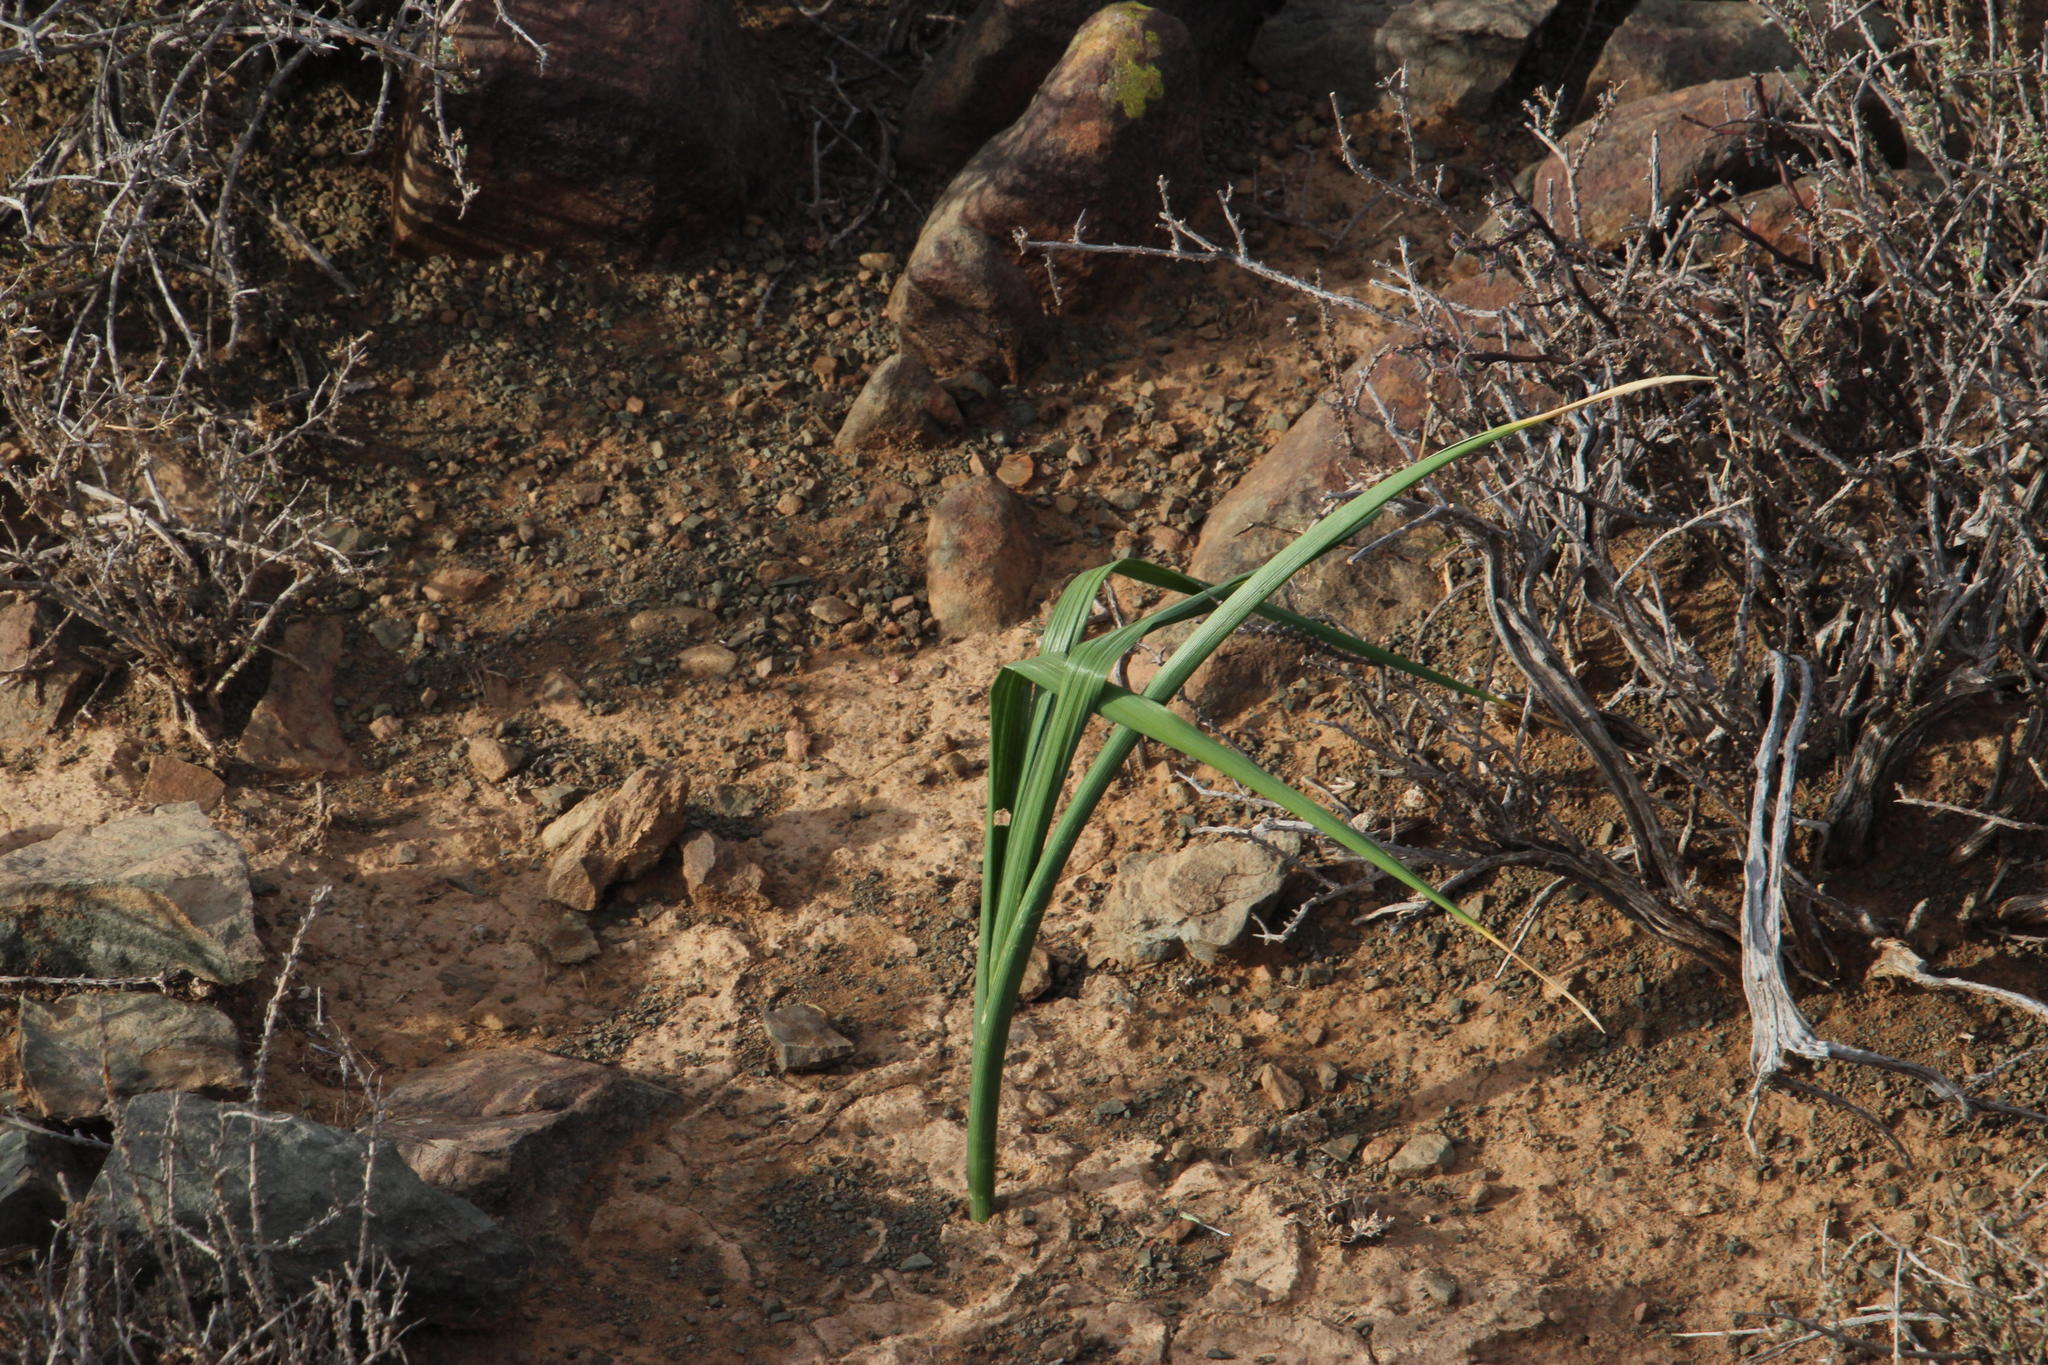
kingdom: Plantae
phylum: Tracheophyta
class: Liliopsida
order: Asparagales
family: Iridaceae
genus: Moraea
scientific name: Moraea polystachya
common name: Blue-tulip
